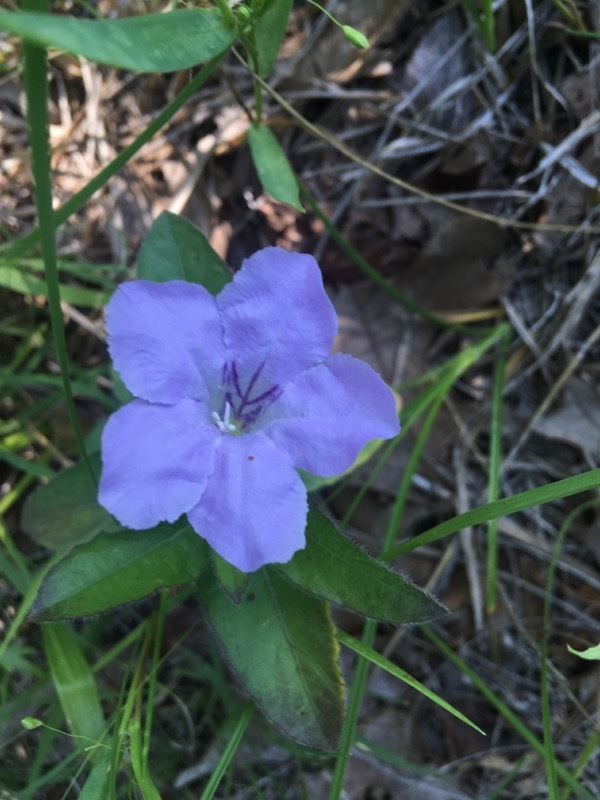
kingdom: Plantae
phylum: Tracheophyta
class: Magnoliopsida
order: Lamiales
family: Acanthaceae
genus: Ruellia
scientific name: Ruellia humilis
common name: Fringe-leaf ruellia
